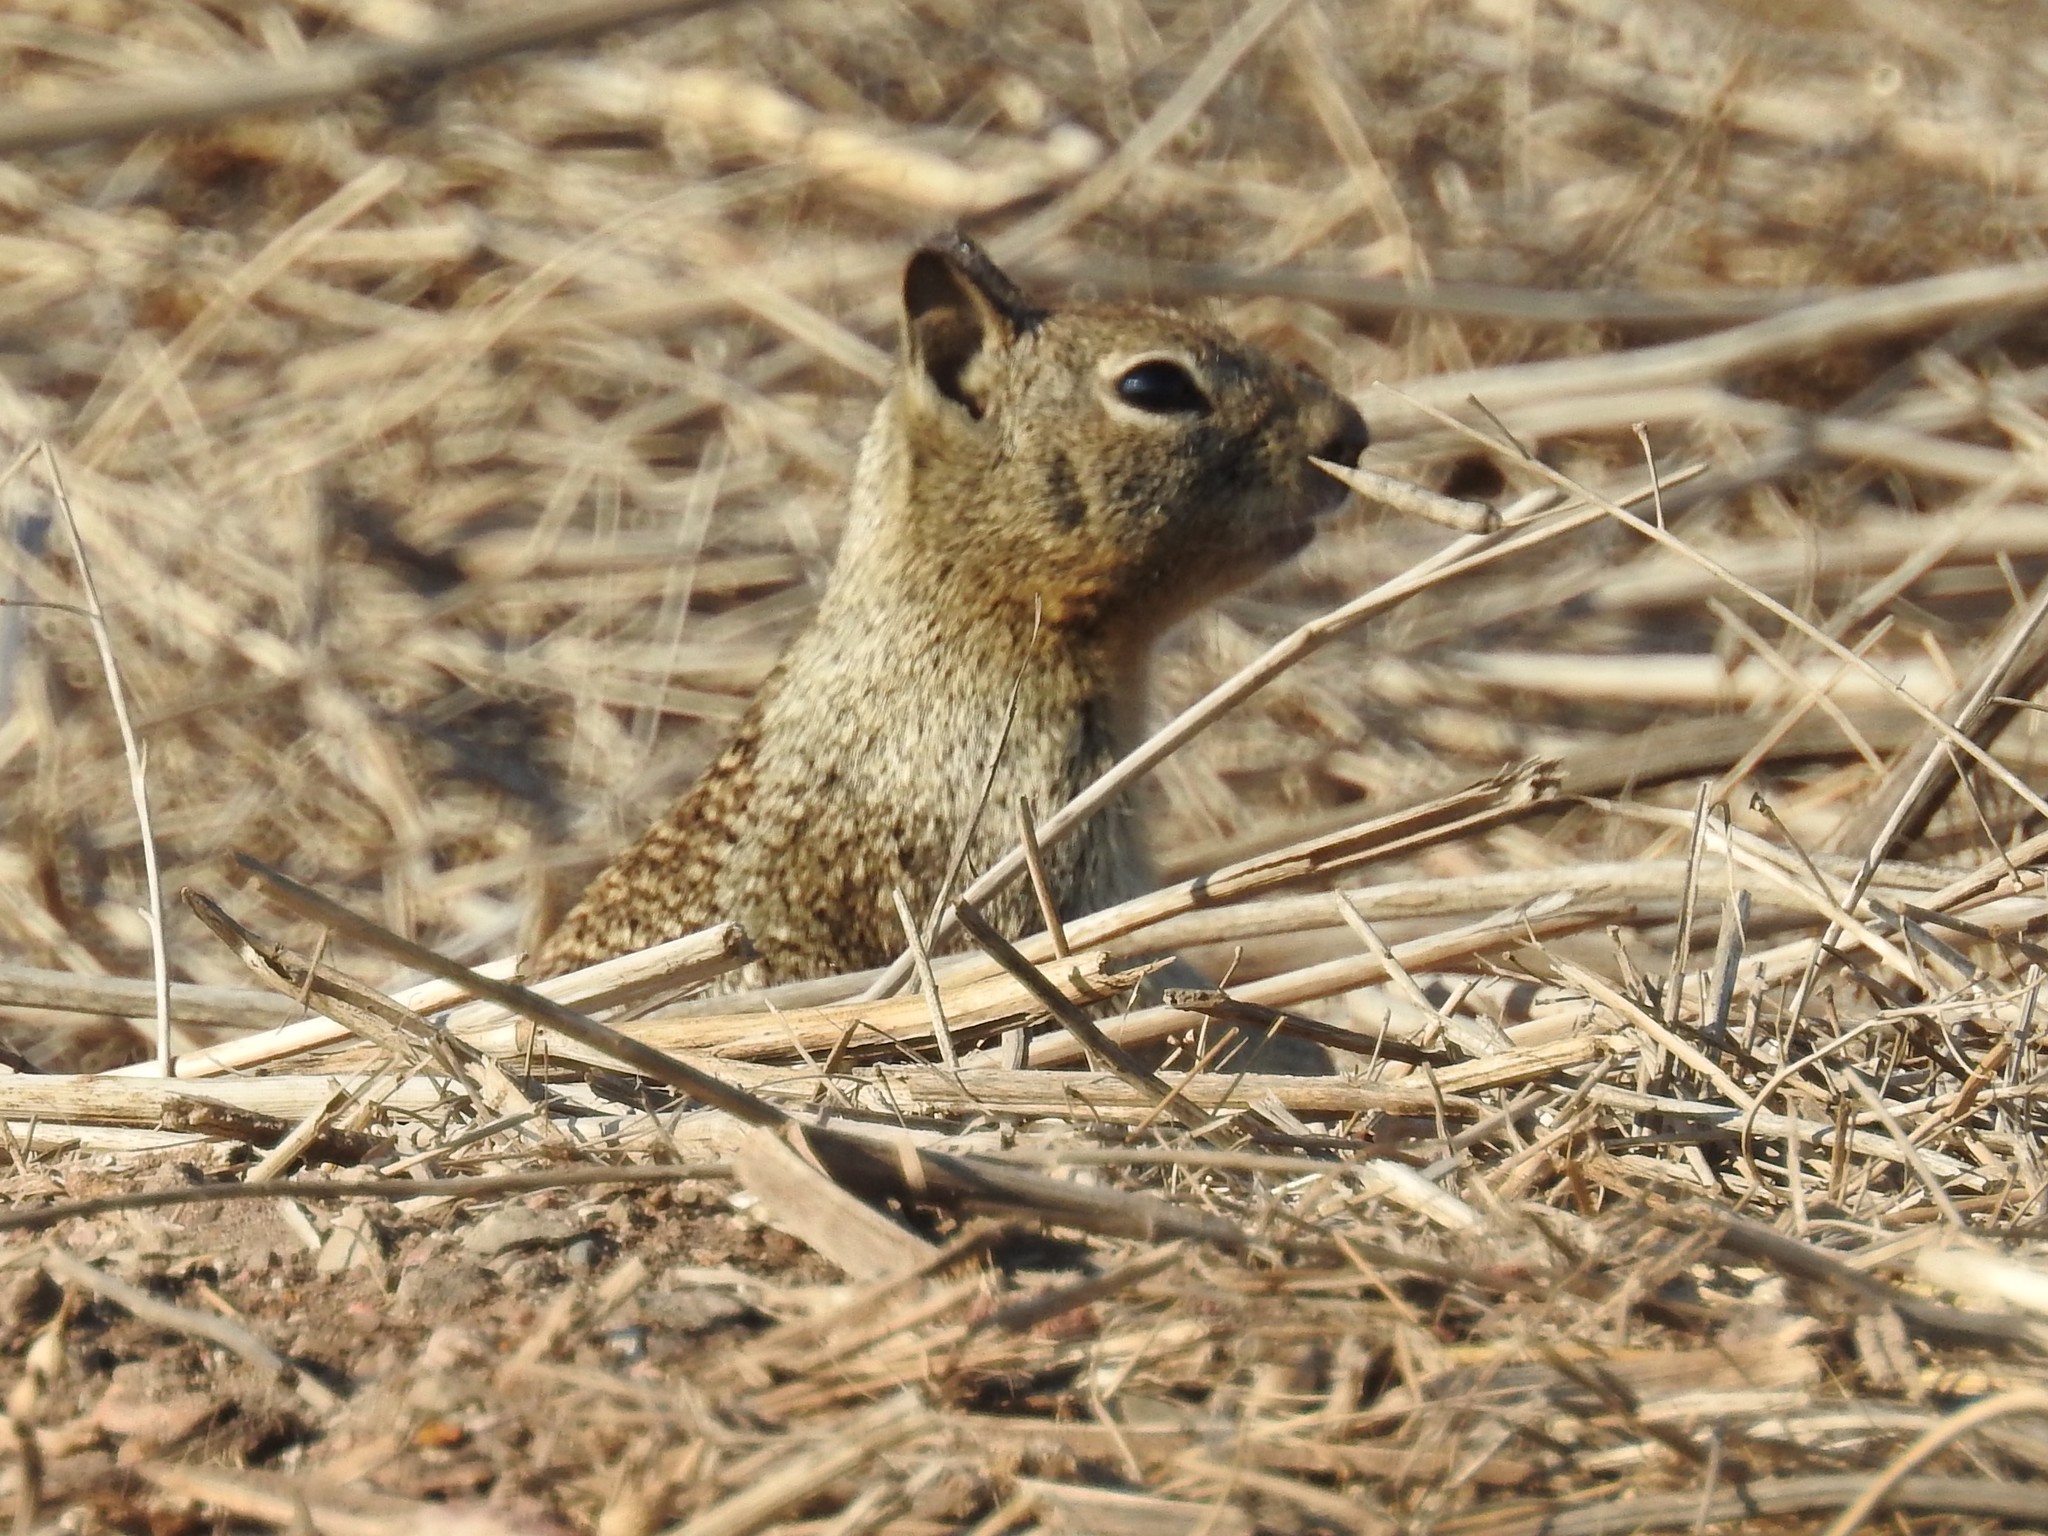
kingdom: Animalia
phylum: Chordata
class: Mammalia
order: Rodentia
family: Sciuridae
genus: Otospermophilus
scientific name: Otospermophilus beecheyi
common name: California ground squirrel
